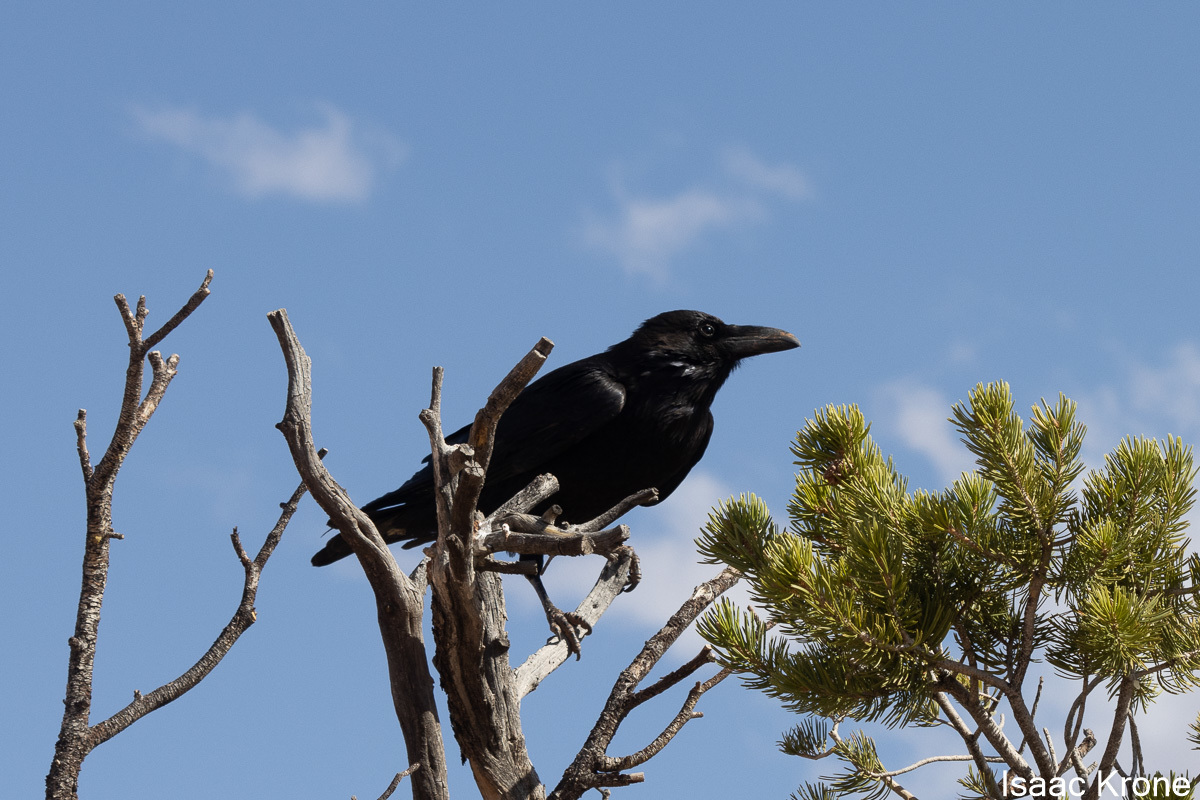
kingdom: Animalia
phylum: Chordata
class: Aves
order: Passeriformes
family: Corvidae
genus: Corvus
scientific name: Corvus corax
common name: Common raven
